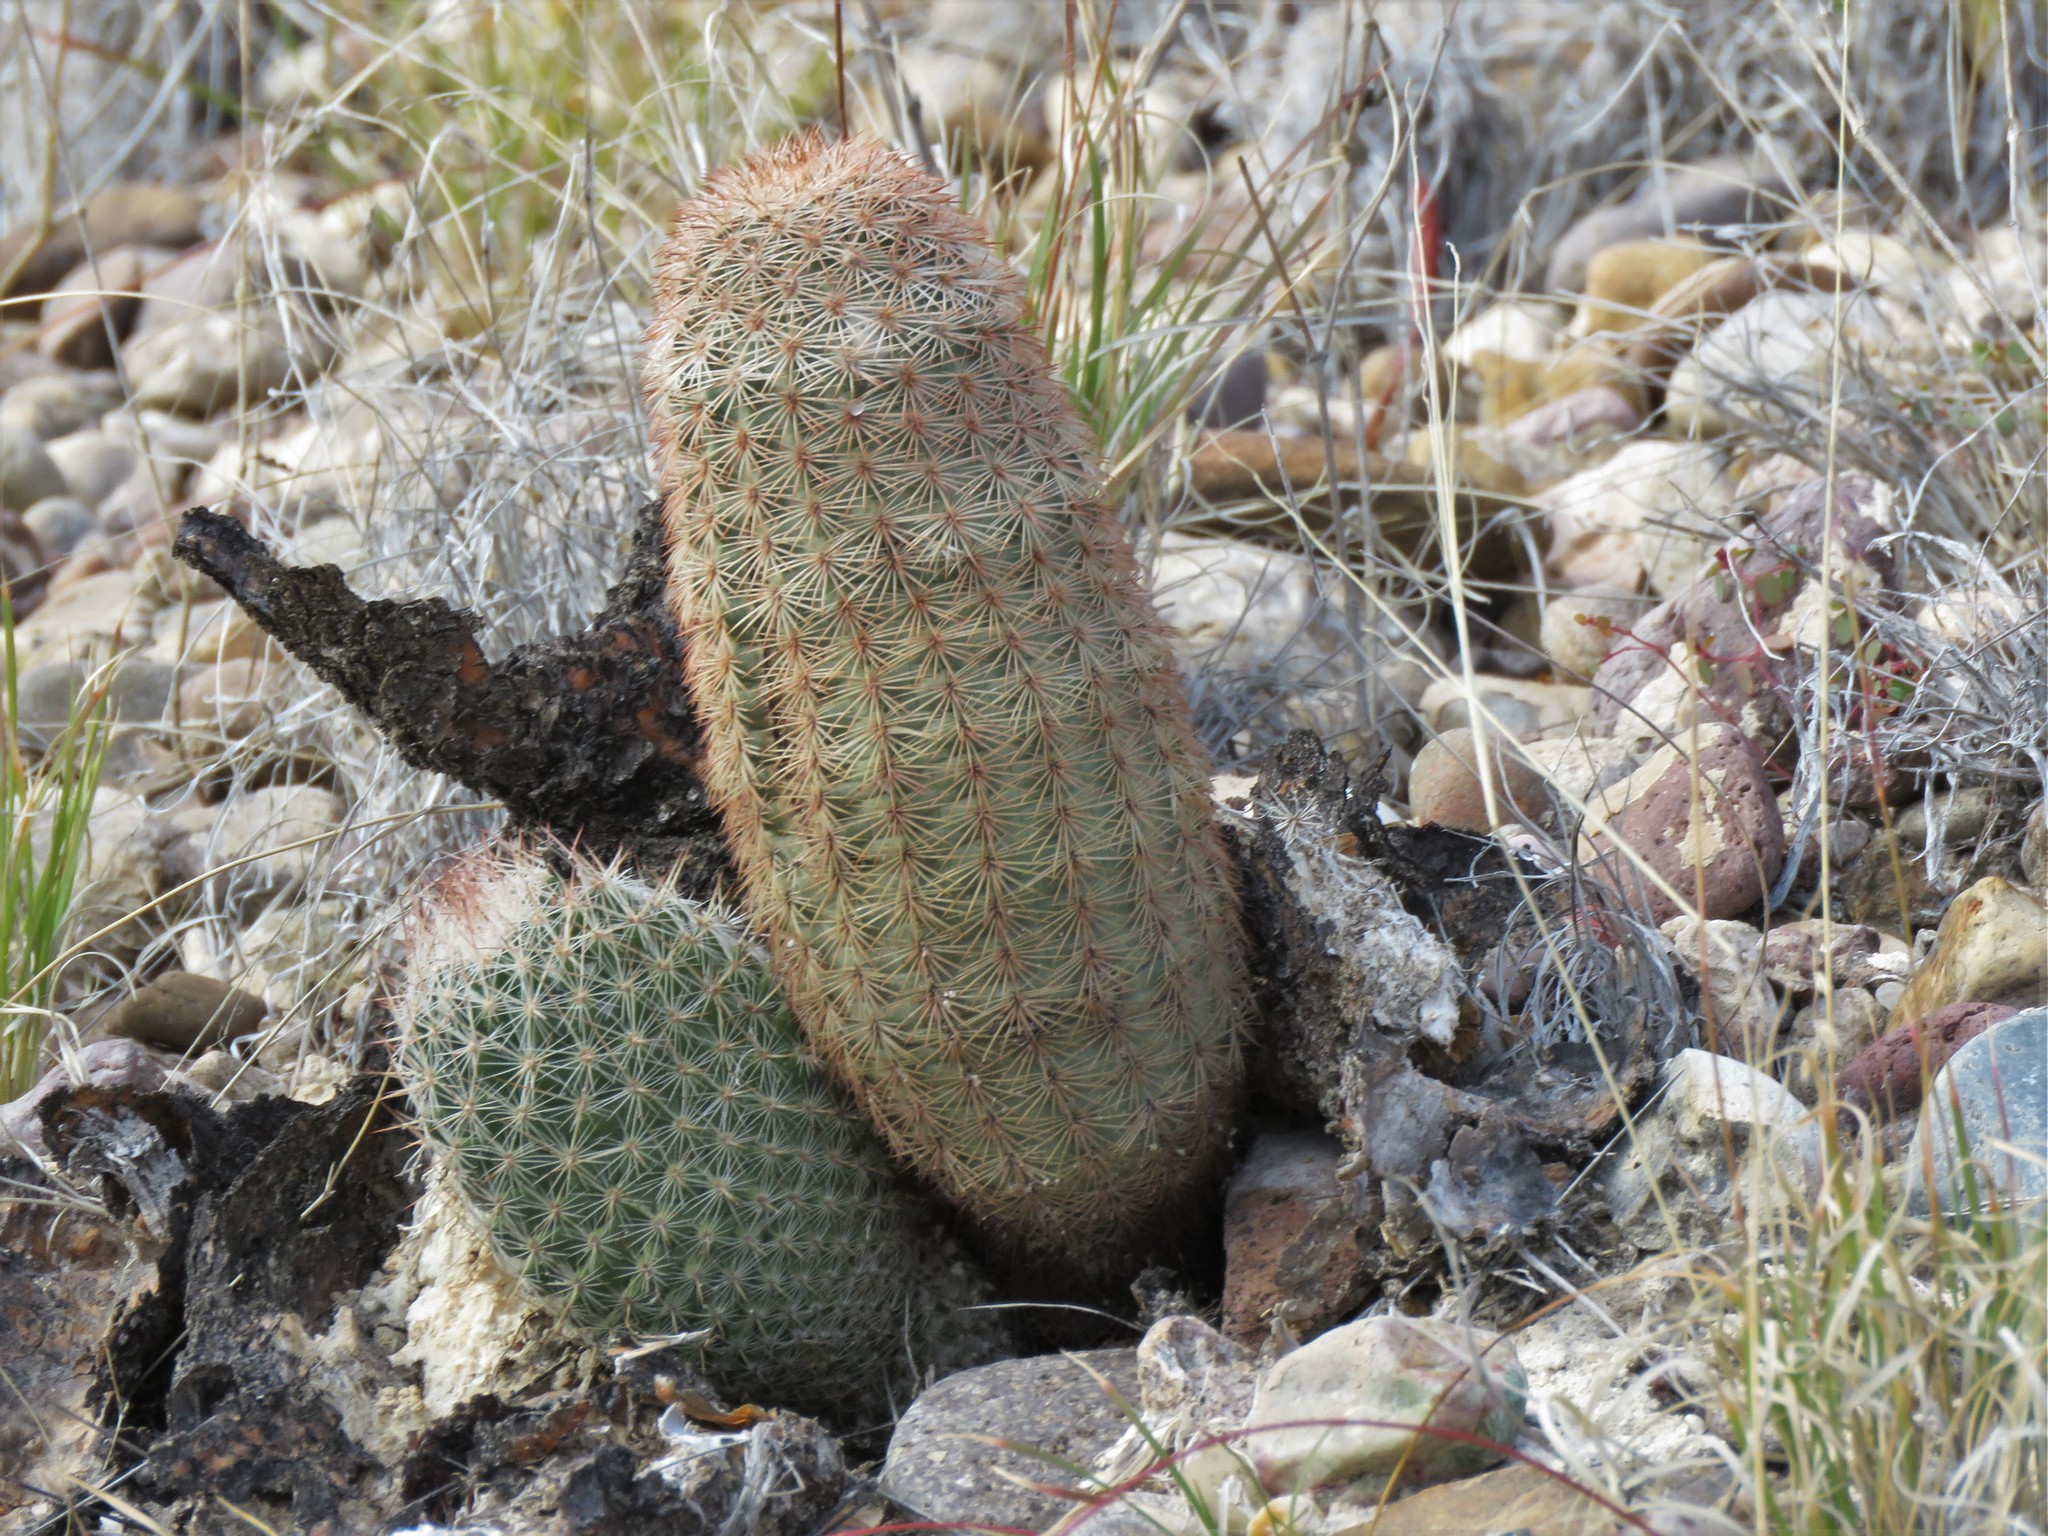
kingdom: Plantae
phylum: Tracheophyta
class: Magnoliopsida
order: Caryophyllales
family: Cactaceae
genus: Echinocereus
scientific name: Echinocereus dasyacanthus
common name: Spiny hedgehog cactus
